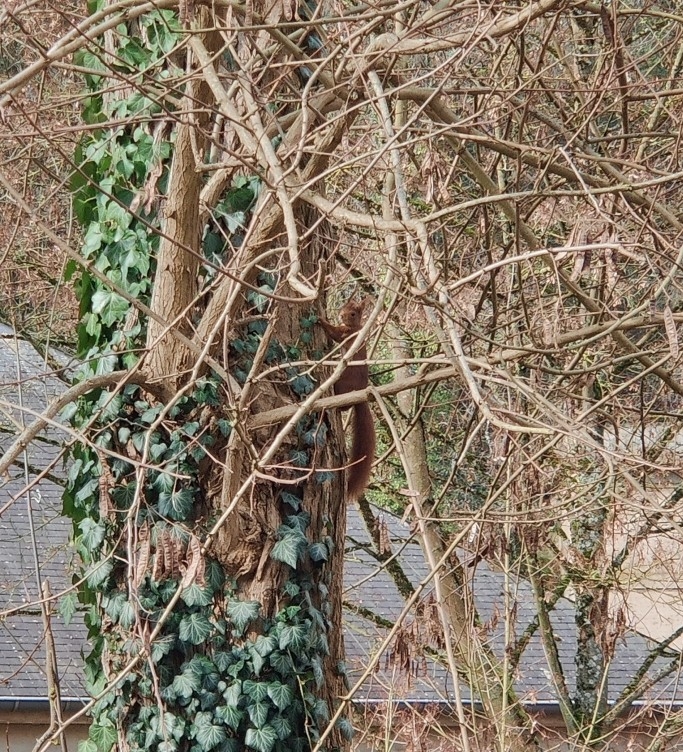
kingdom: Animalia
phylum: Chordata
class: Mammalia
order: Rodentia
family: Sciuridae
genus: Sciurus
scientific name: Sciurus vulgaris
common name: Eurasian red squirrel
